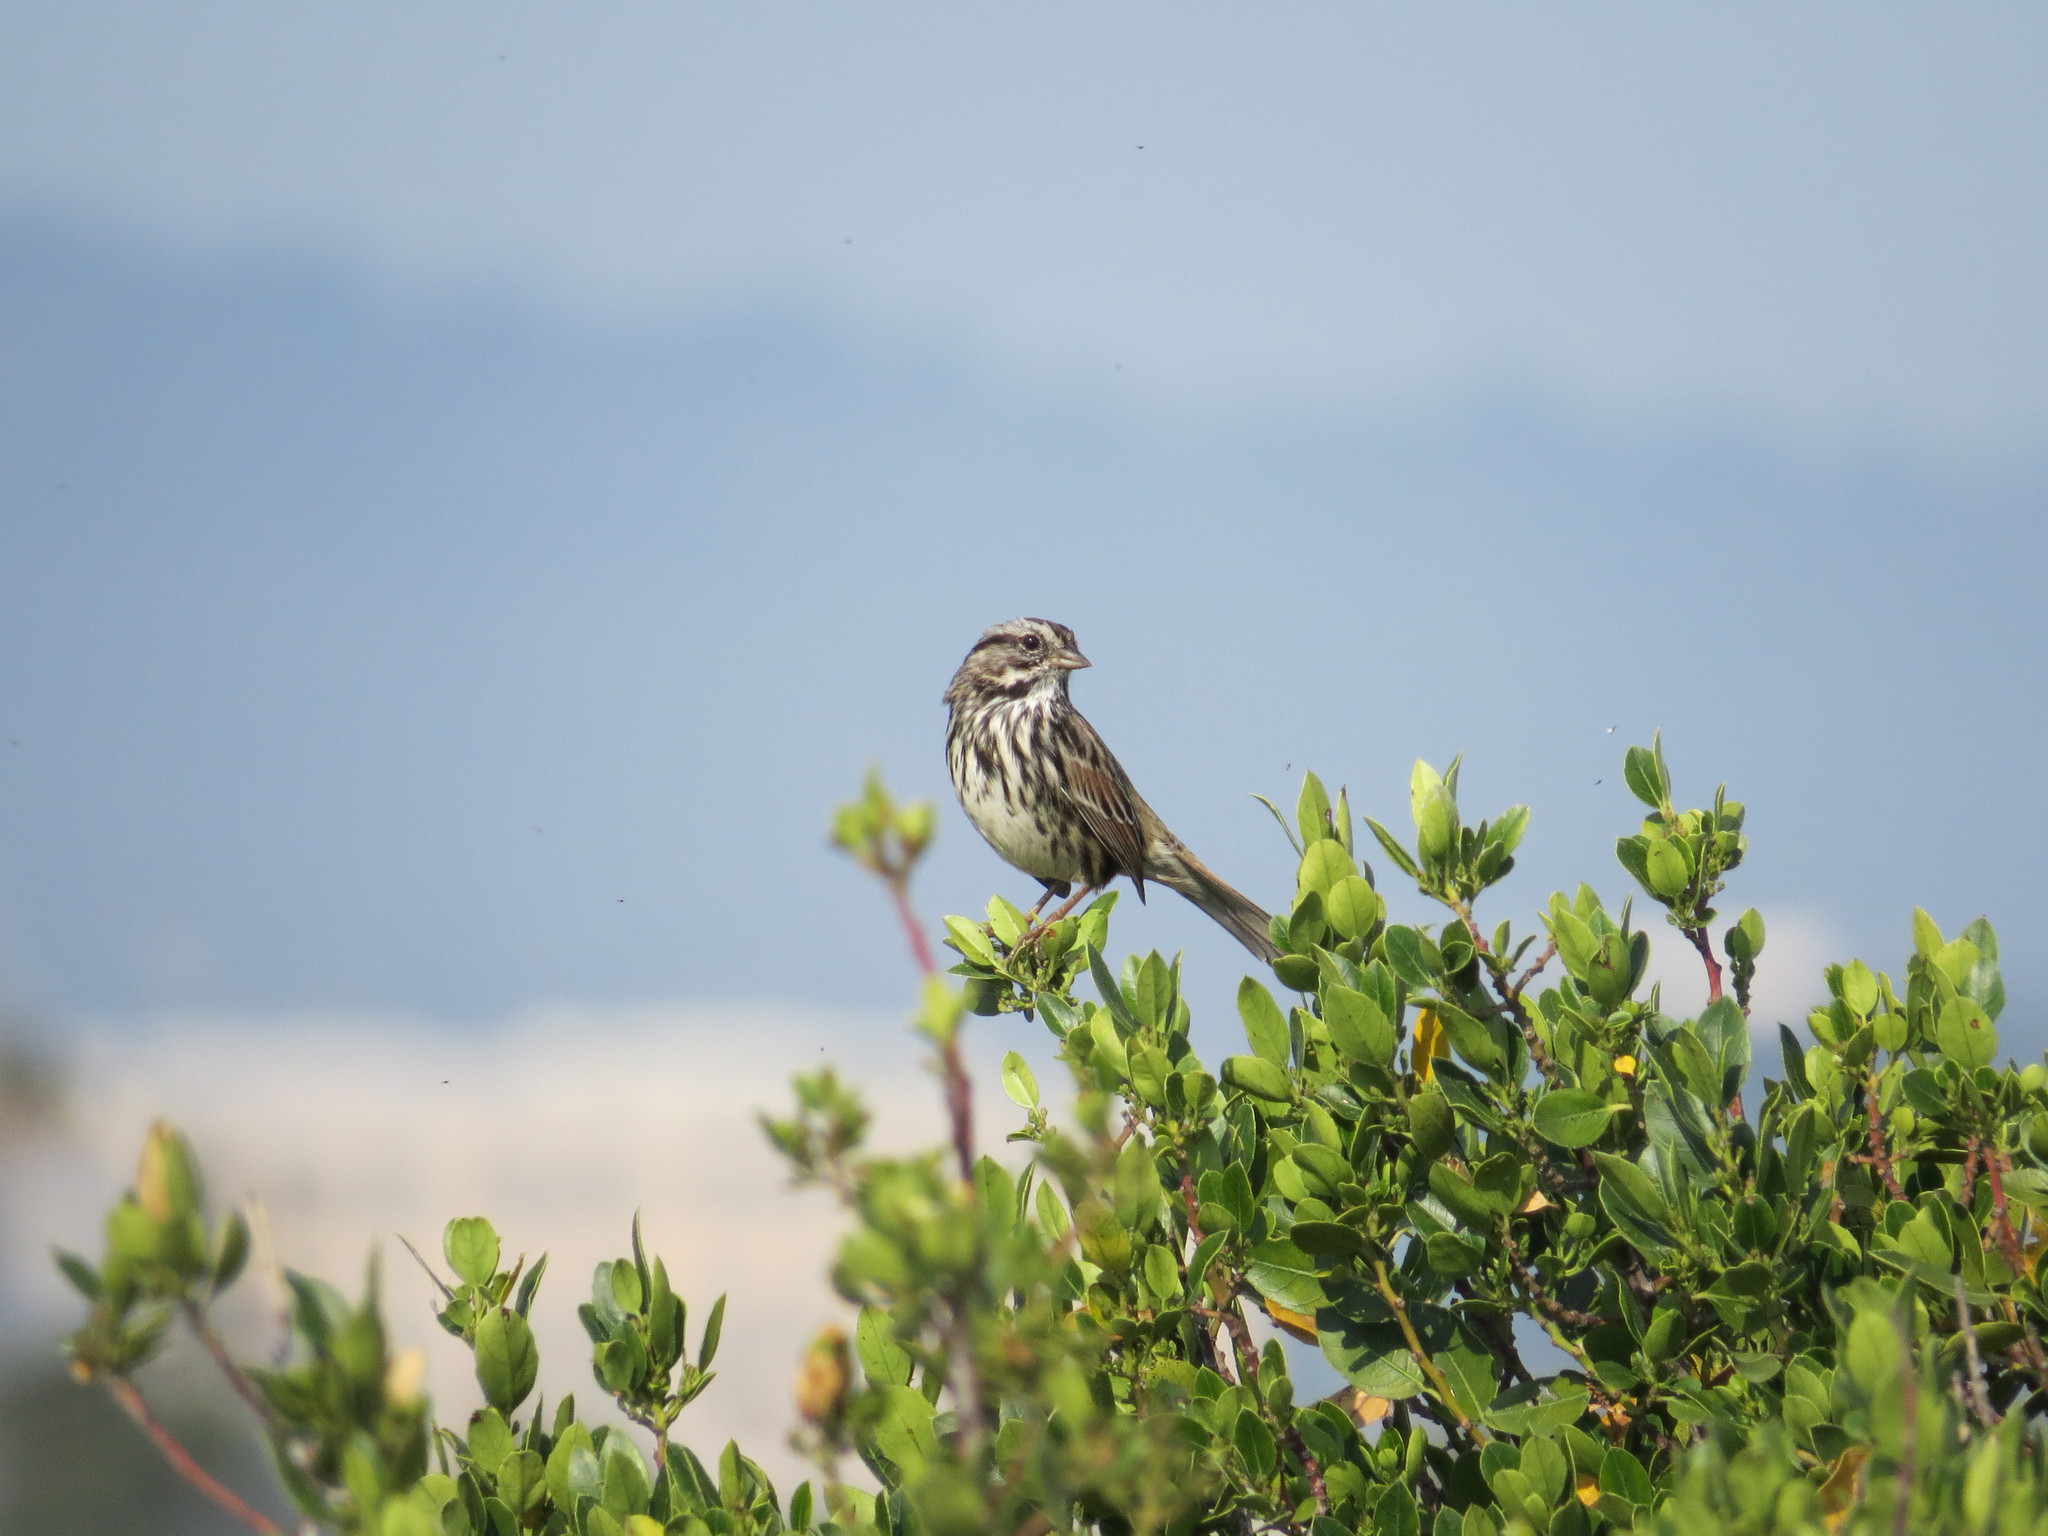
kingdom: Animalia
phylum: Chordata
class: Aves
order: Passeriformes
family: Passerellidae
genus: Melospiza
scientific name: Melospiza melodia
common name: Song sparrow
